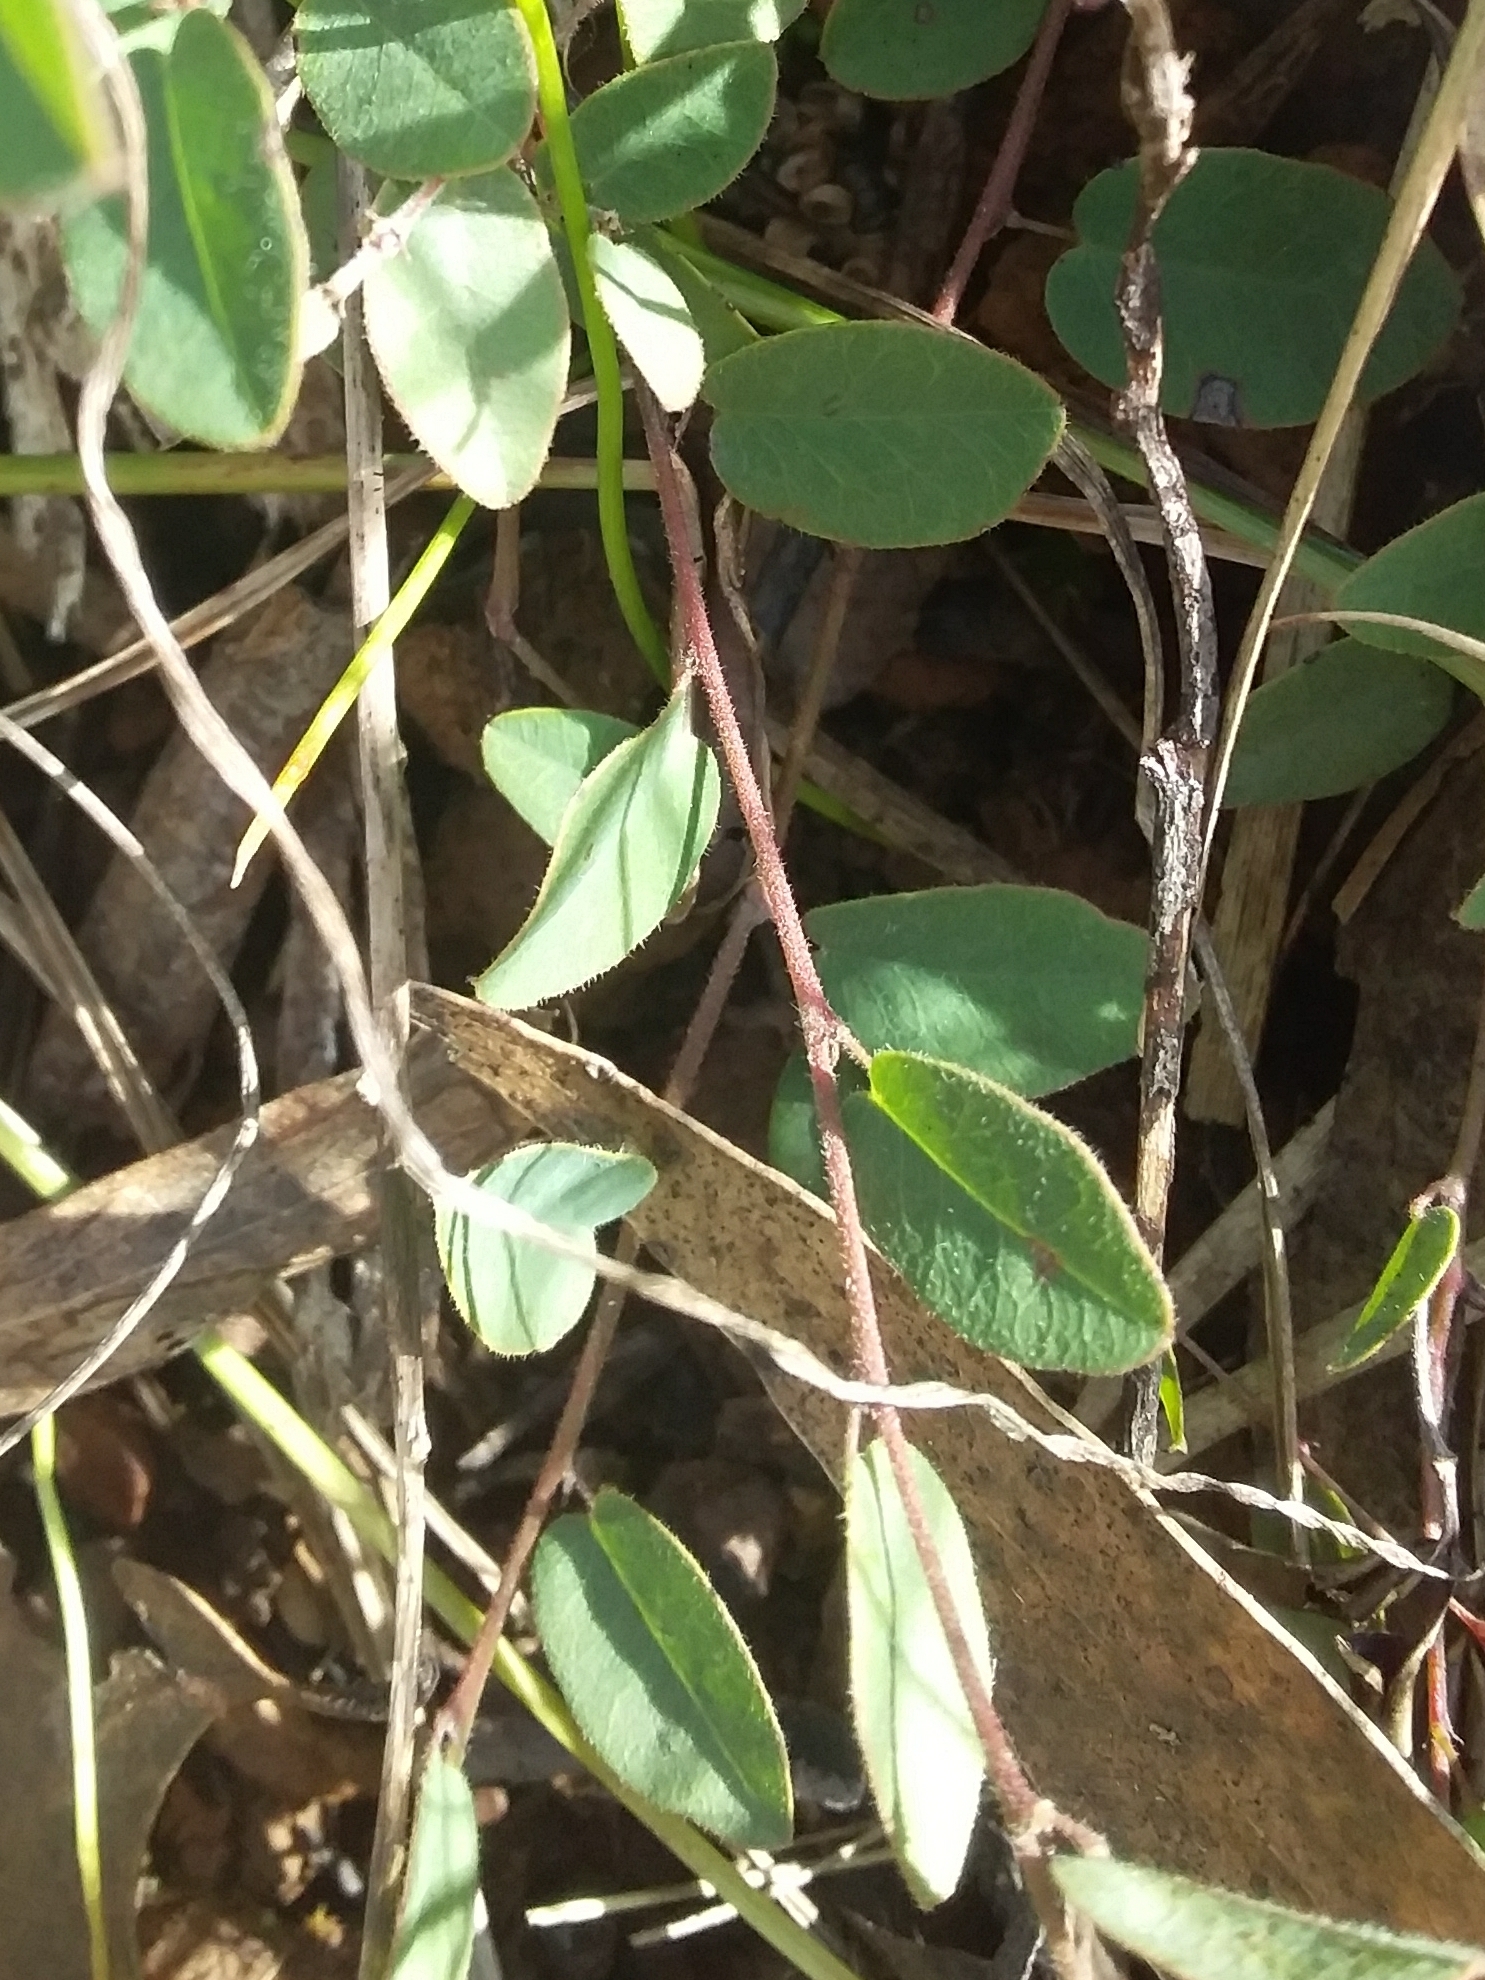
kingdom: Plantae
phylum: Tracheophyta
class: Magnoliopsida
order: Fabales
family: Fabaceae
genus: Bossiaea
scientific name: Bossiaea prostrata
